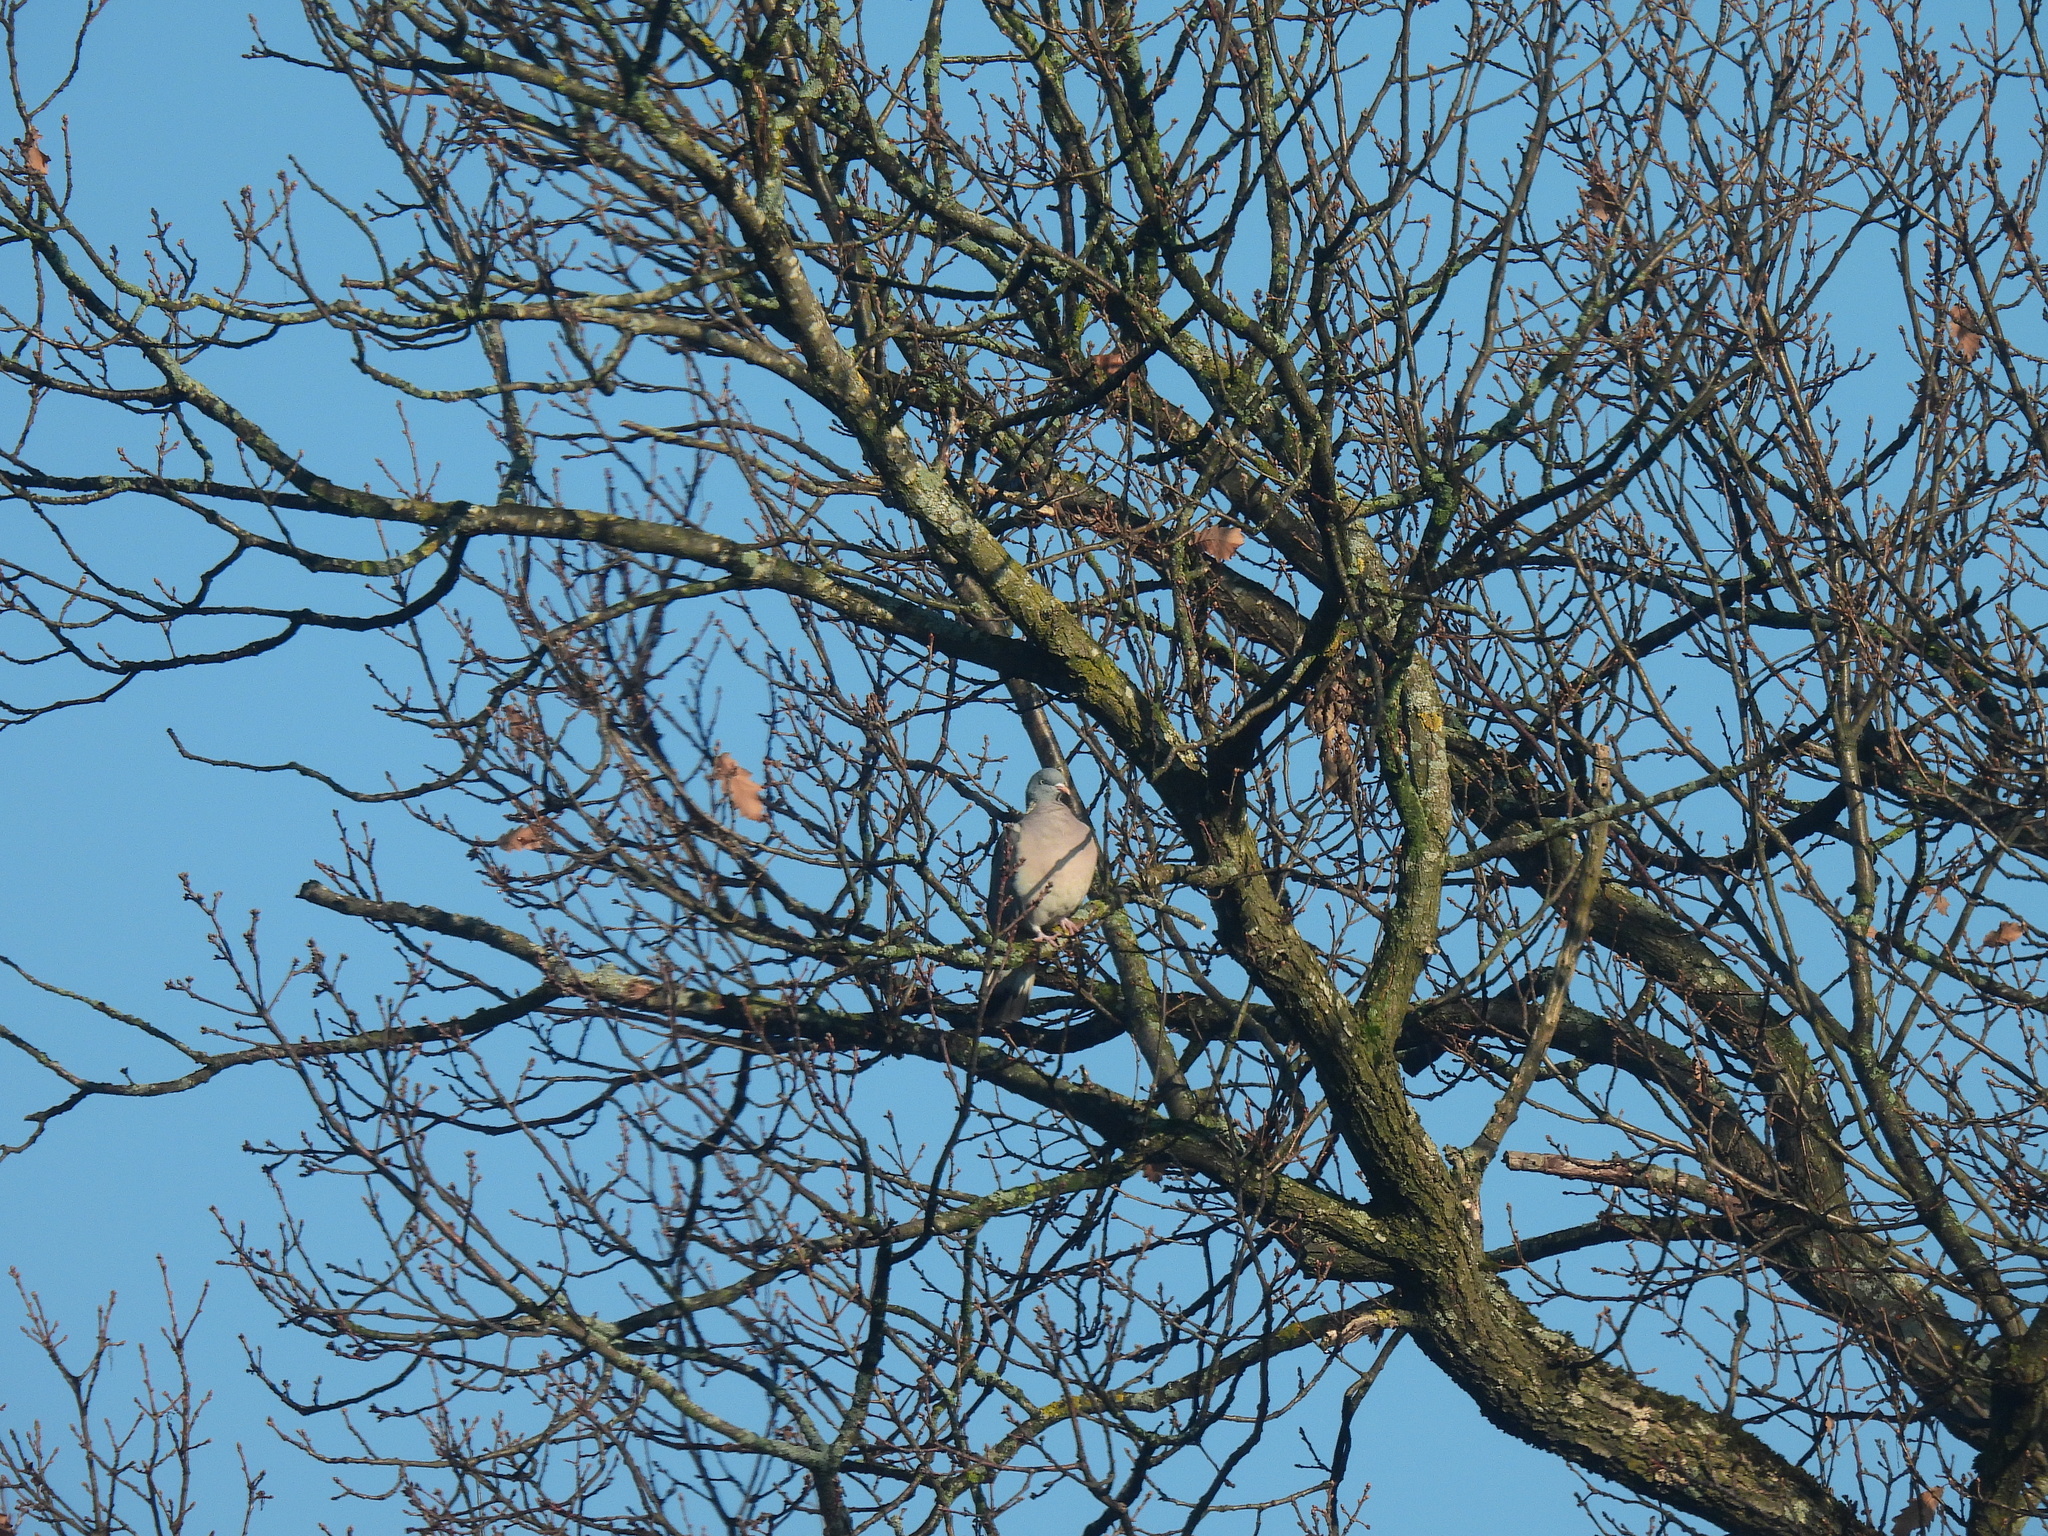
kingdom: Animalia
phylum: Chordata
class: Aves
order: Columbiformes
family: Columbidae
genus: Columba
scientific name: Columba palumbus
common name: Common wood pigeon
